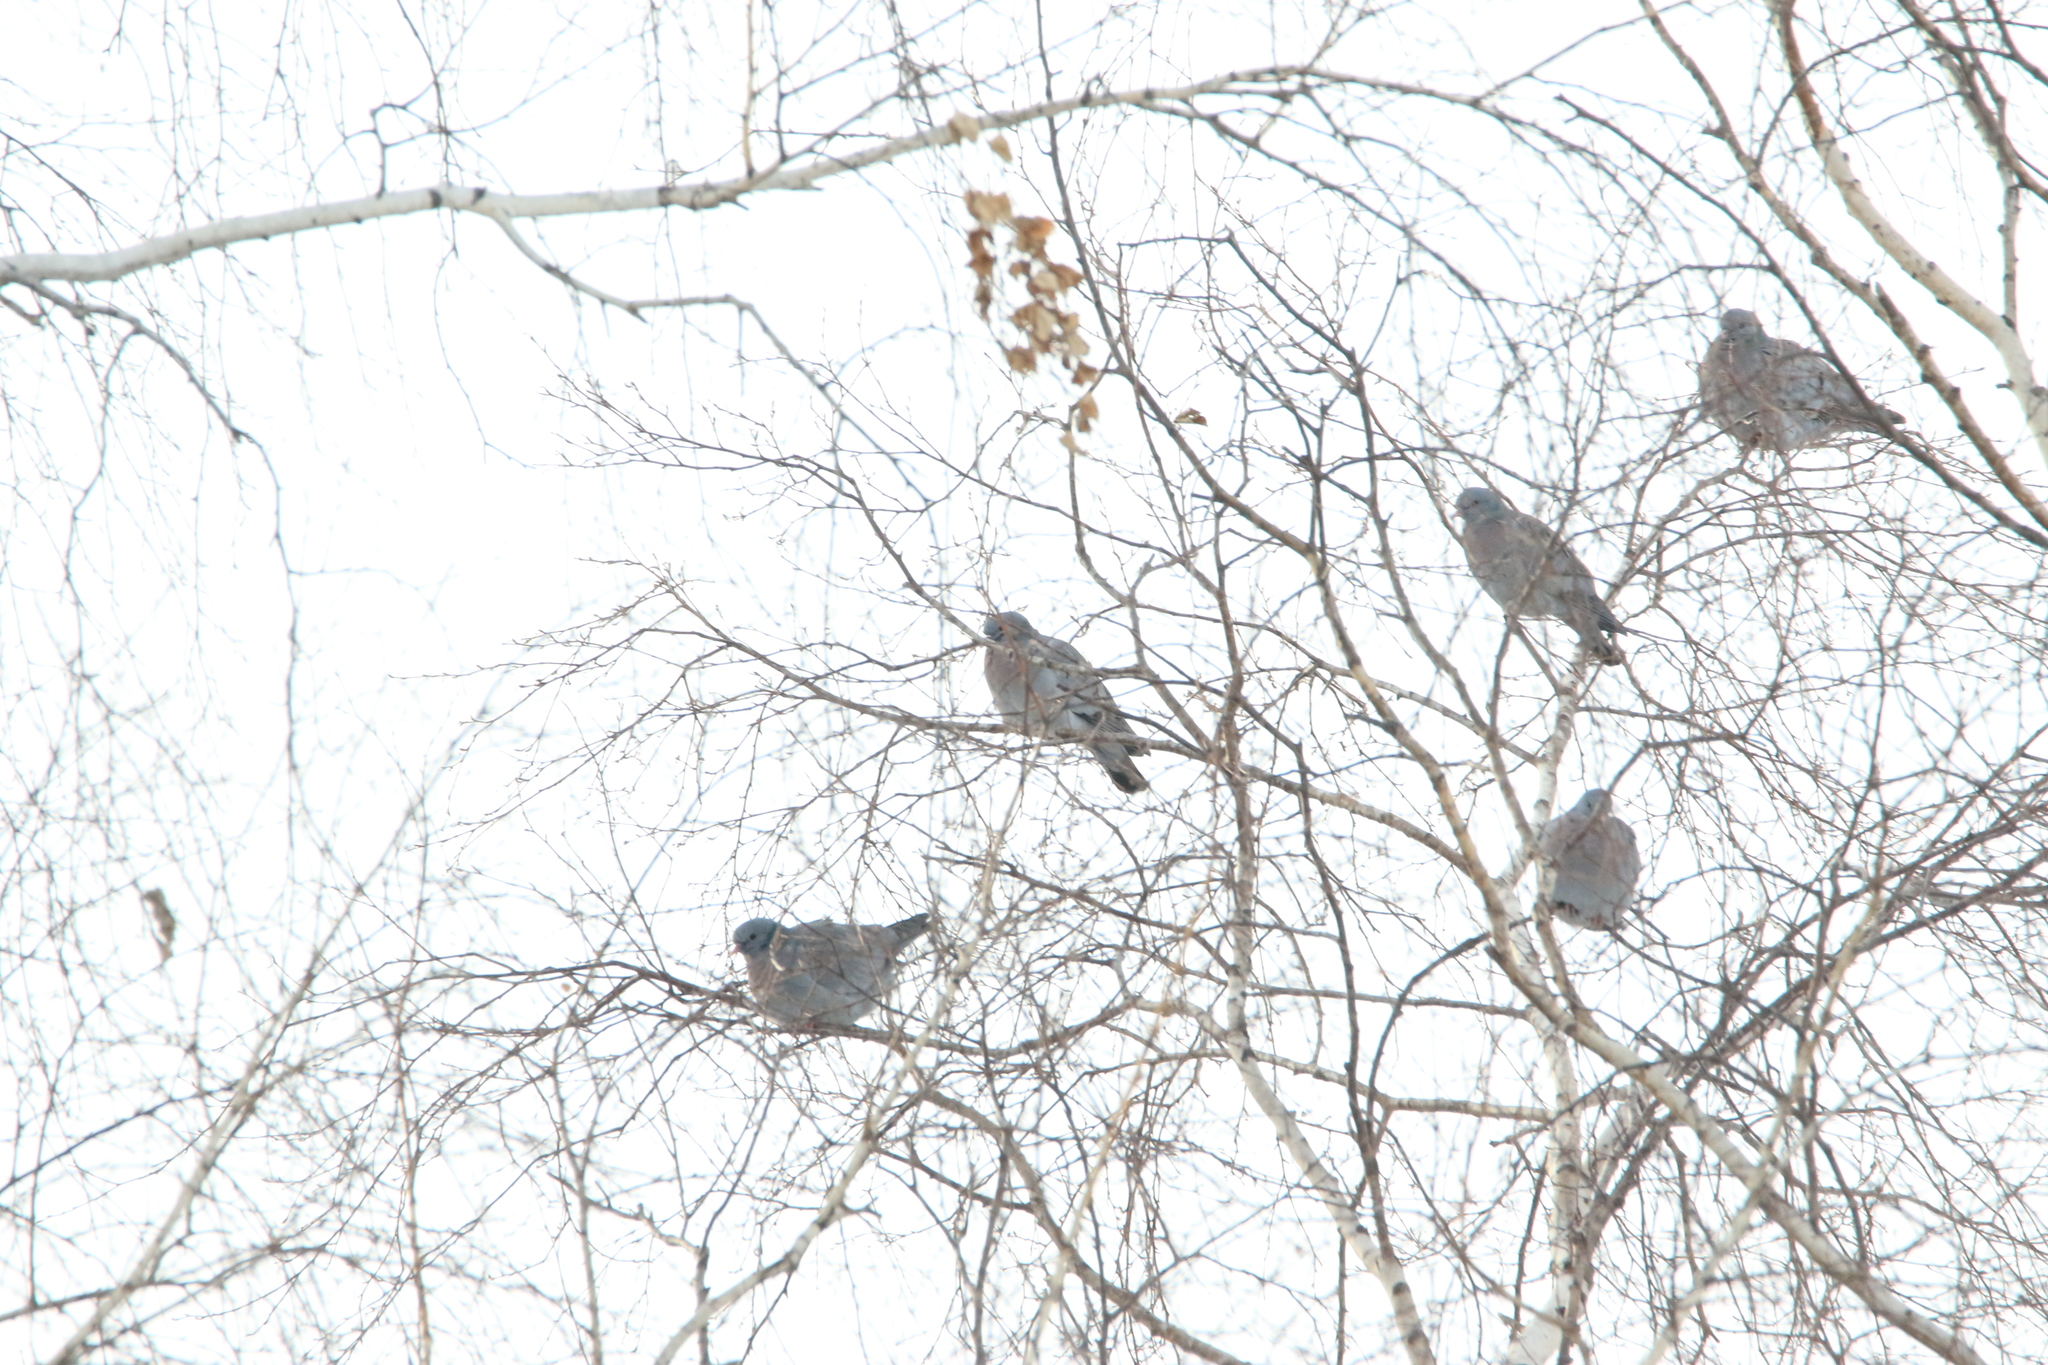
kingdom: Animalia
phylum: Chordata
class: Aves
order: Columbiformes
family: Columbidae
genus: Columba
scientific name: Columba oenas
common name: Stock dove
